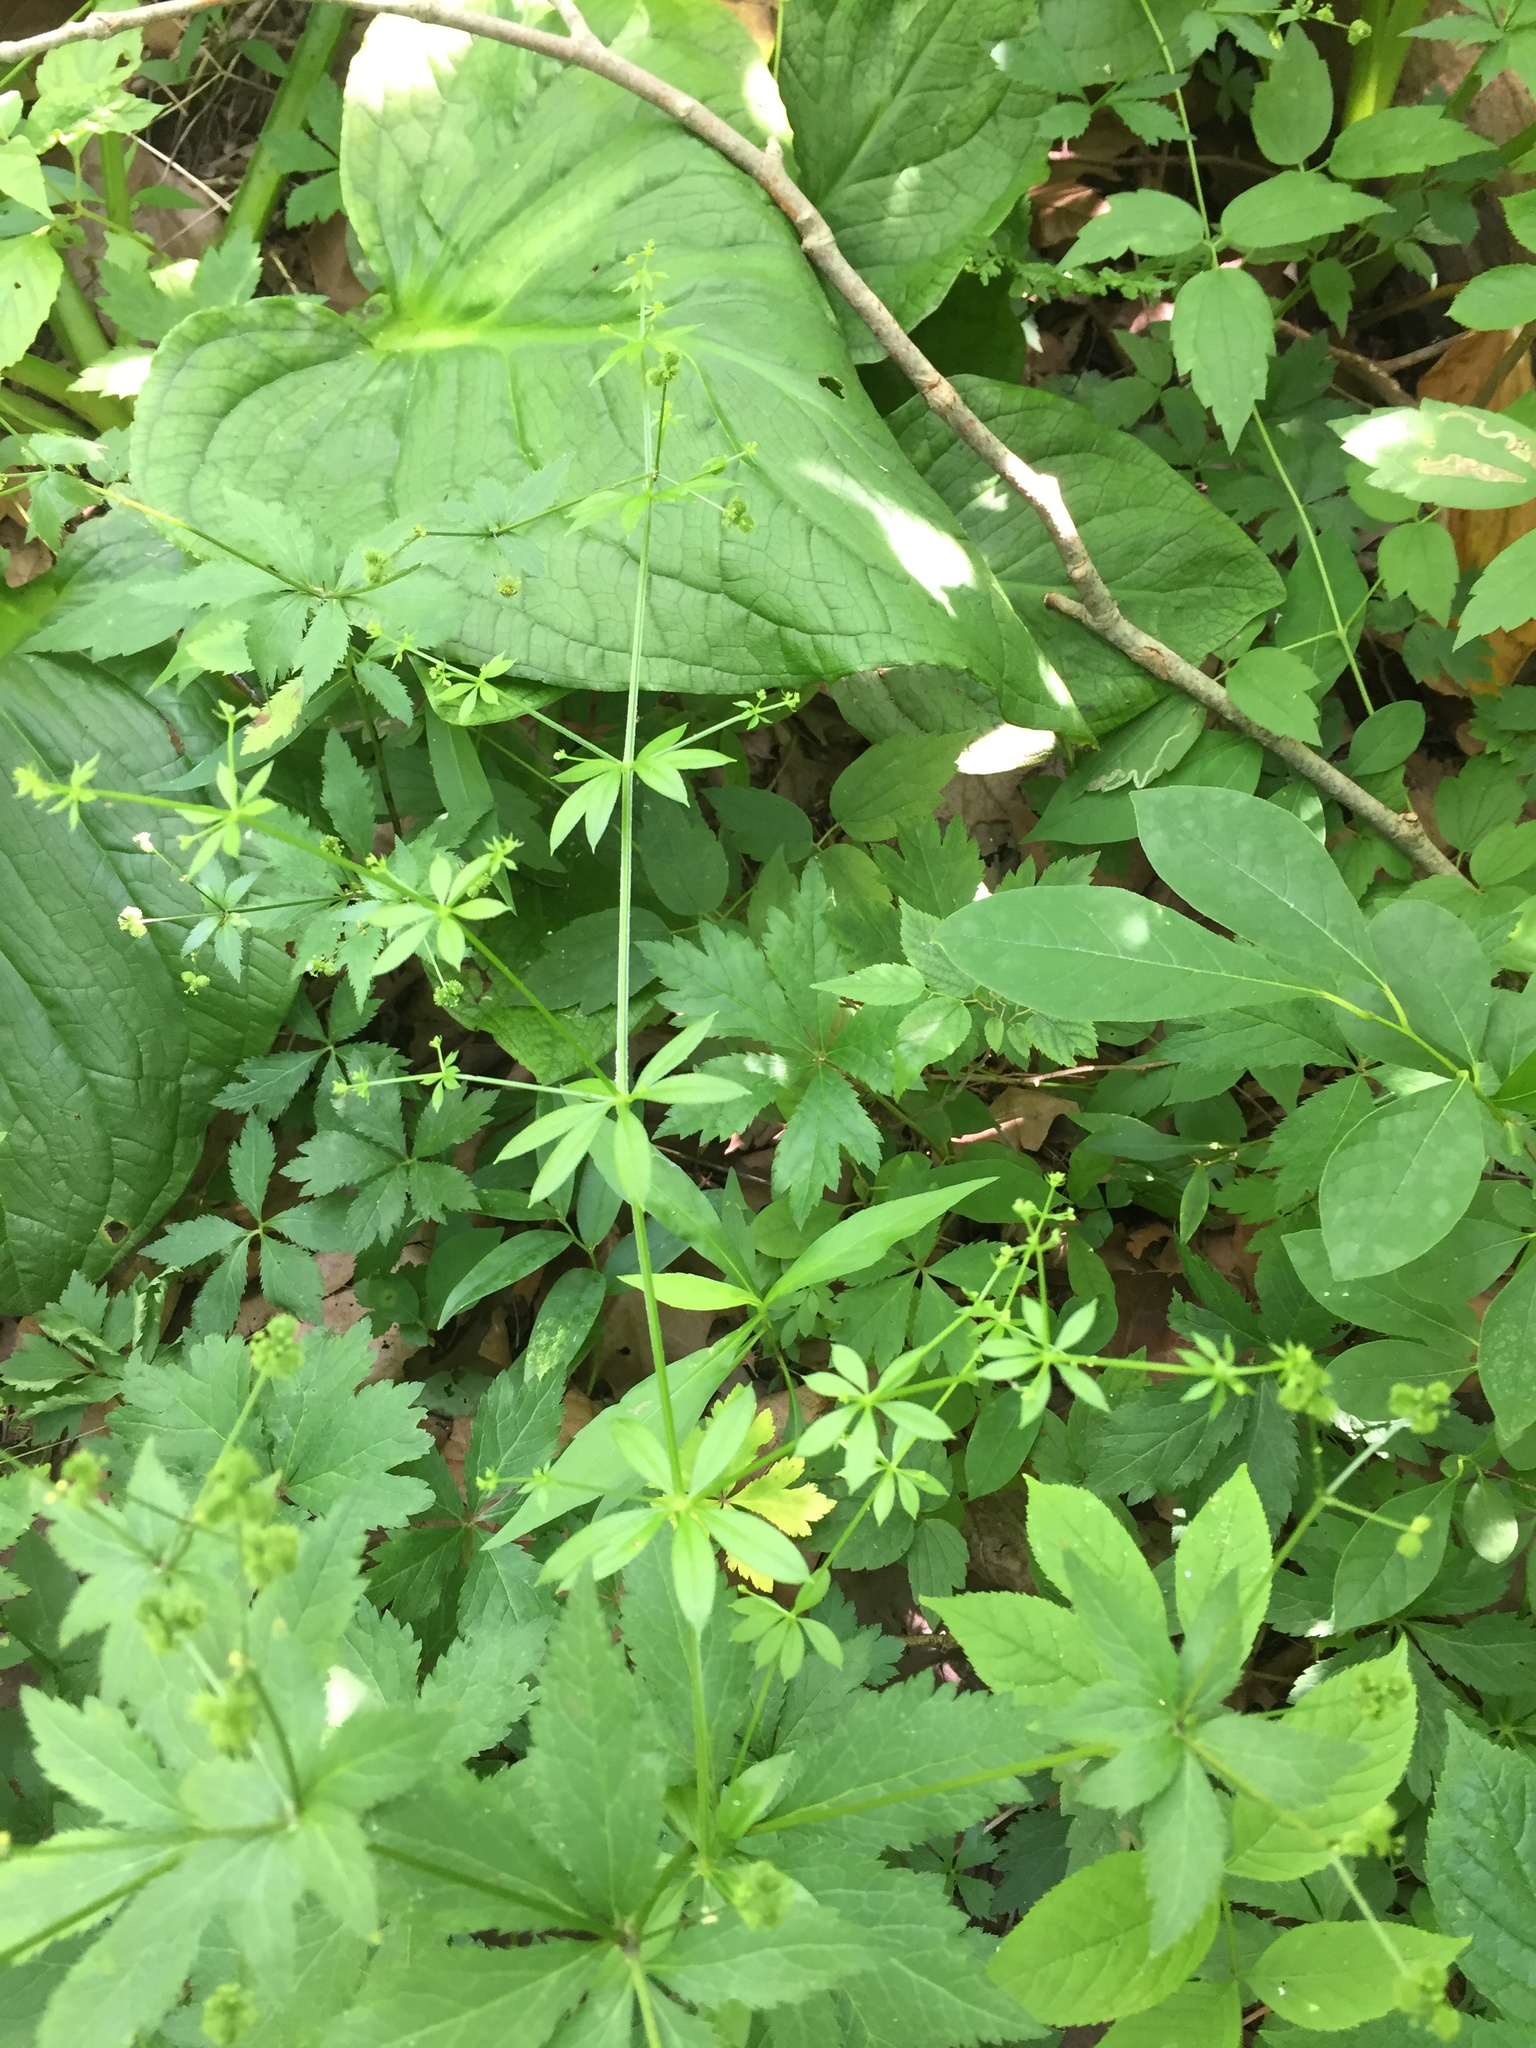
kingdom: Plantae
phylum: Tracheophyta
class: Magnoliopsida
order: Gentianales
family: Rubiaceae
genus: Galium
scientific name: Galium triflorum
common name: Fragrant bedstraw
